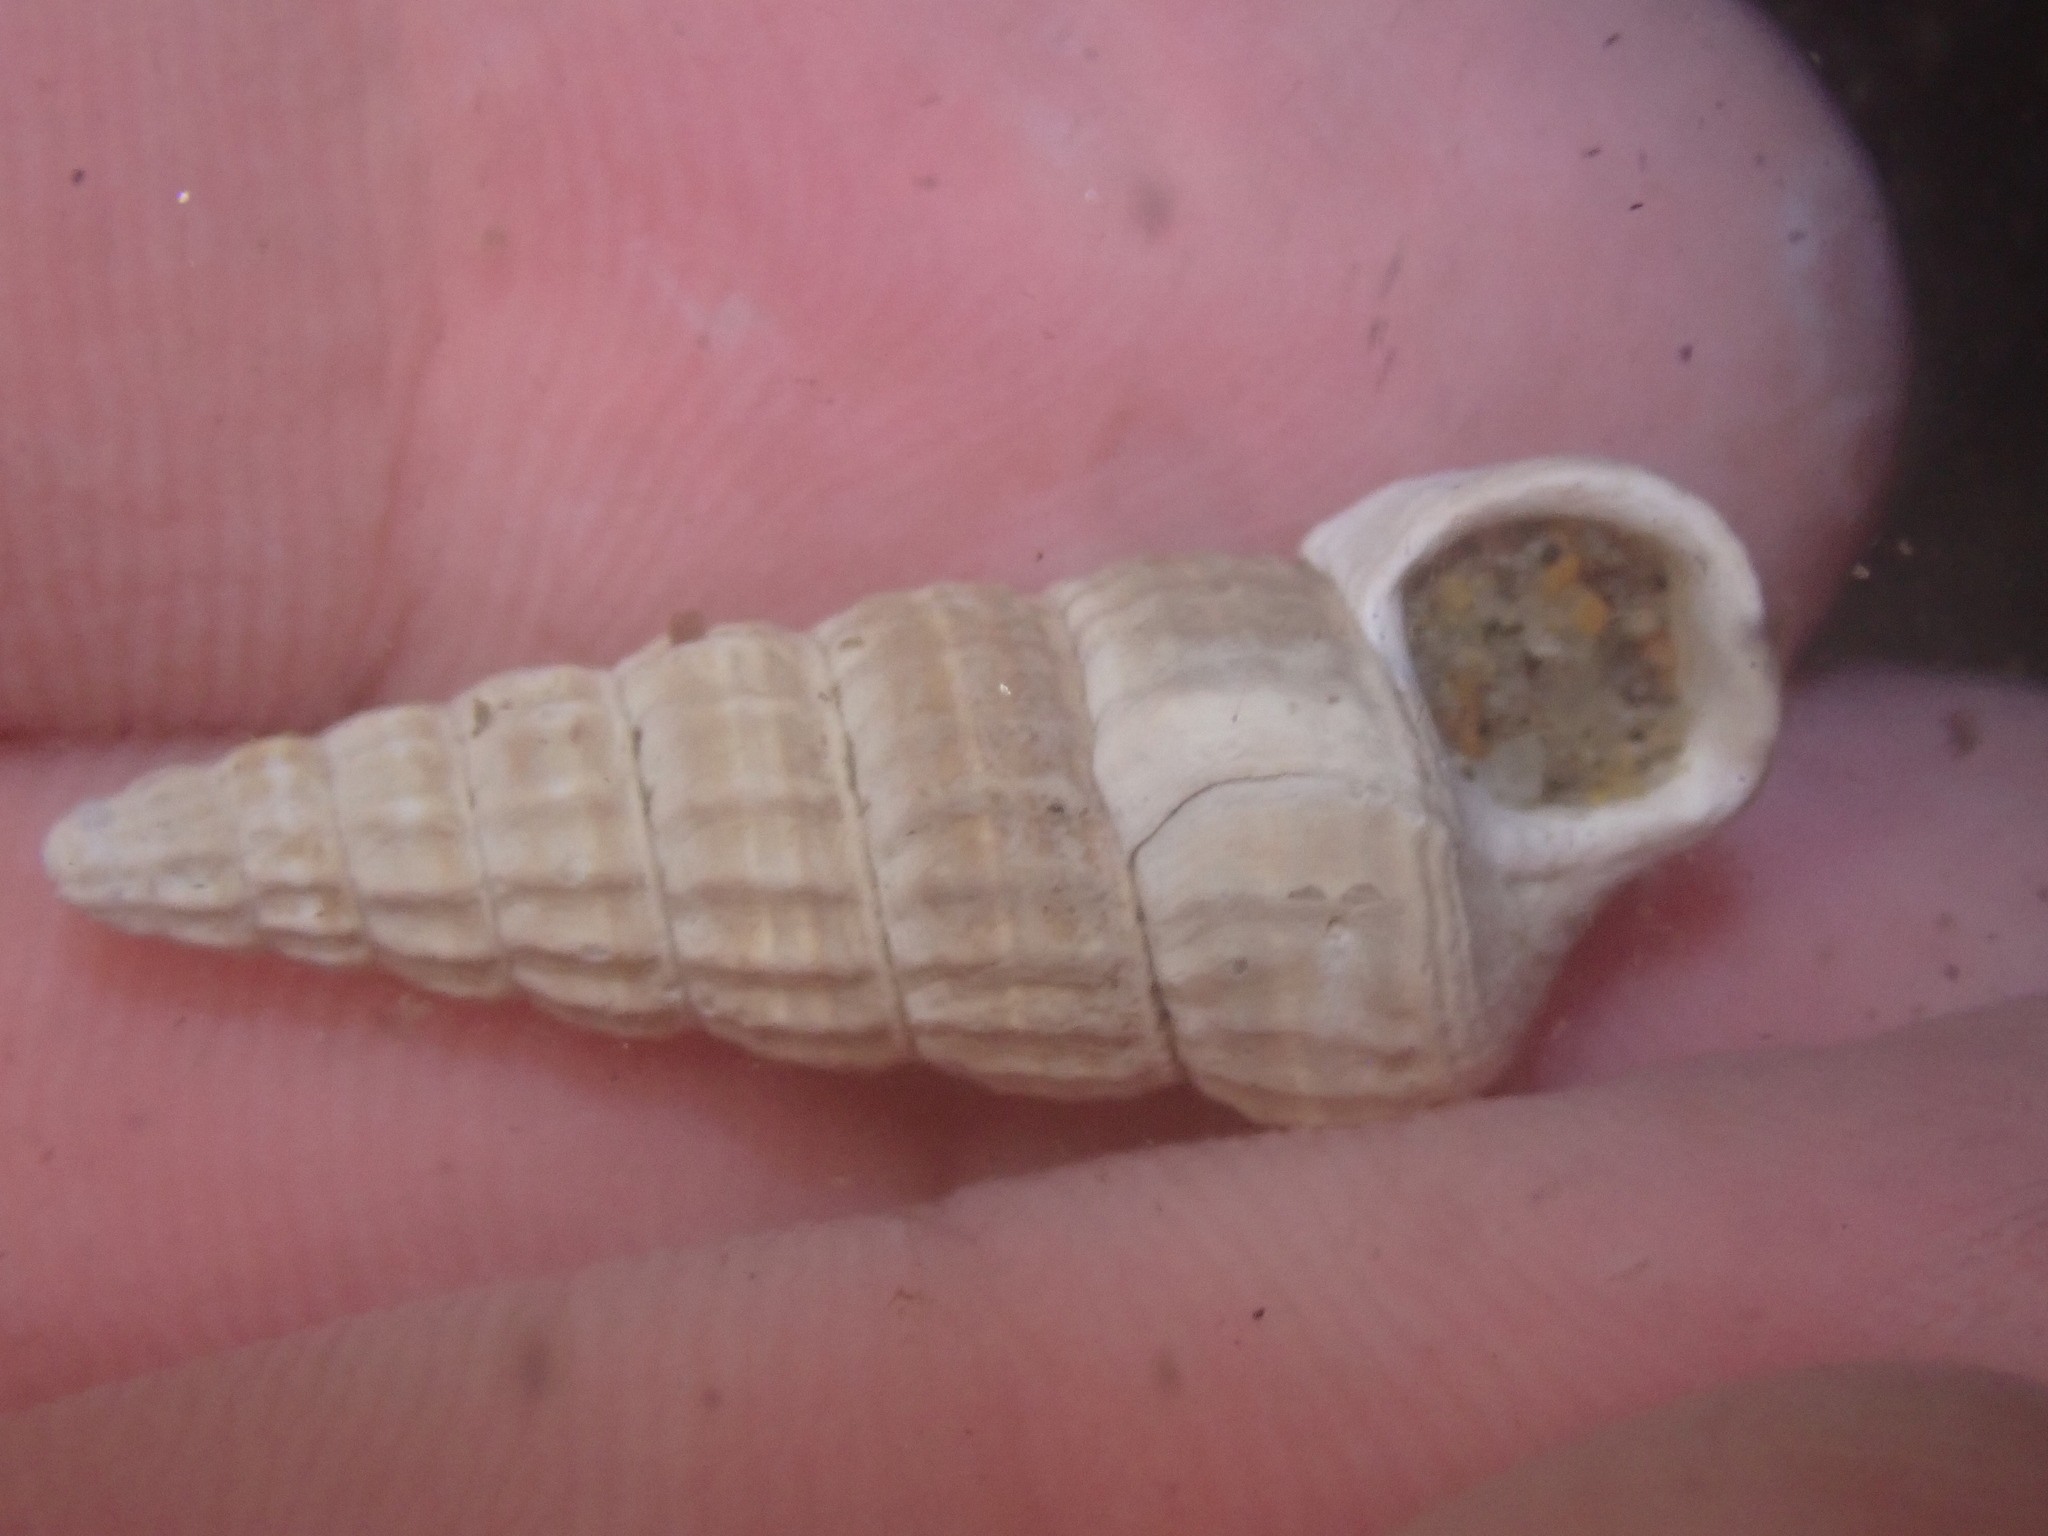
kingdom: Animalia
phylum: Mollusca
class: Gastropoda
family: Potamididae
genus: Cerithideopsis
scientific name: Cerithideopsis californica
